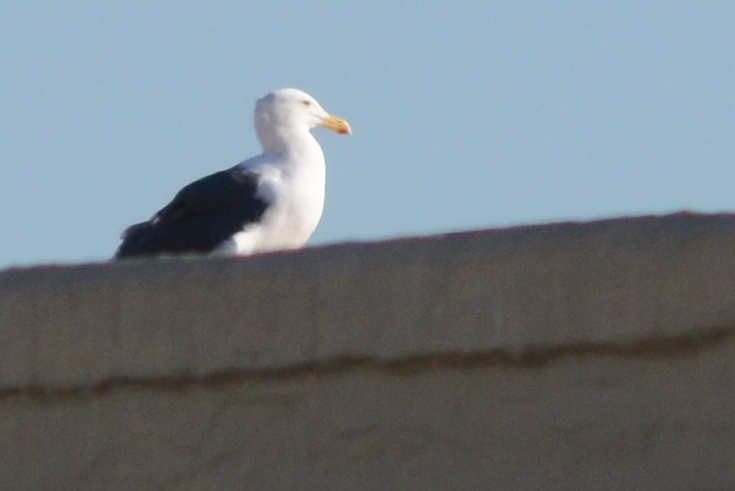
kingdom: Animalia
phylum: Chordata
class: Aves
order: Charadriiformes
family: Laridae
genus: Larus
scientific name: Larus occidentalis
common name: Western gull
